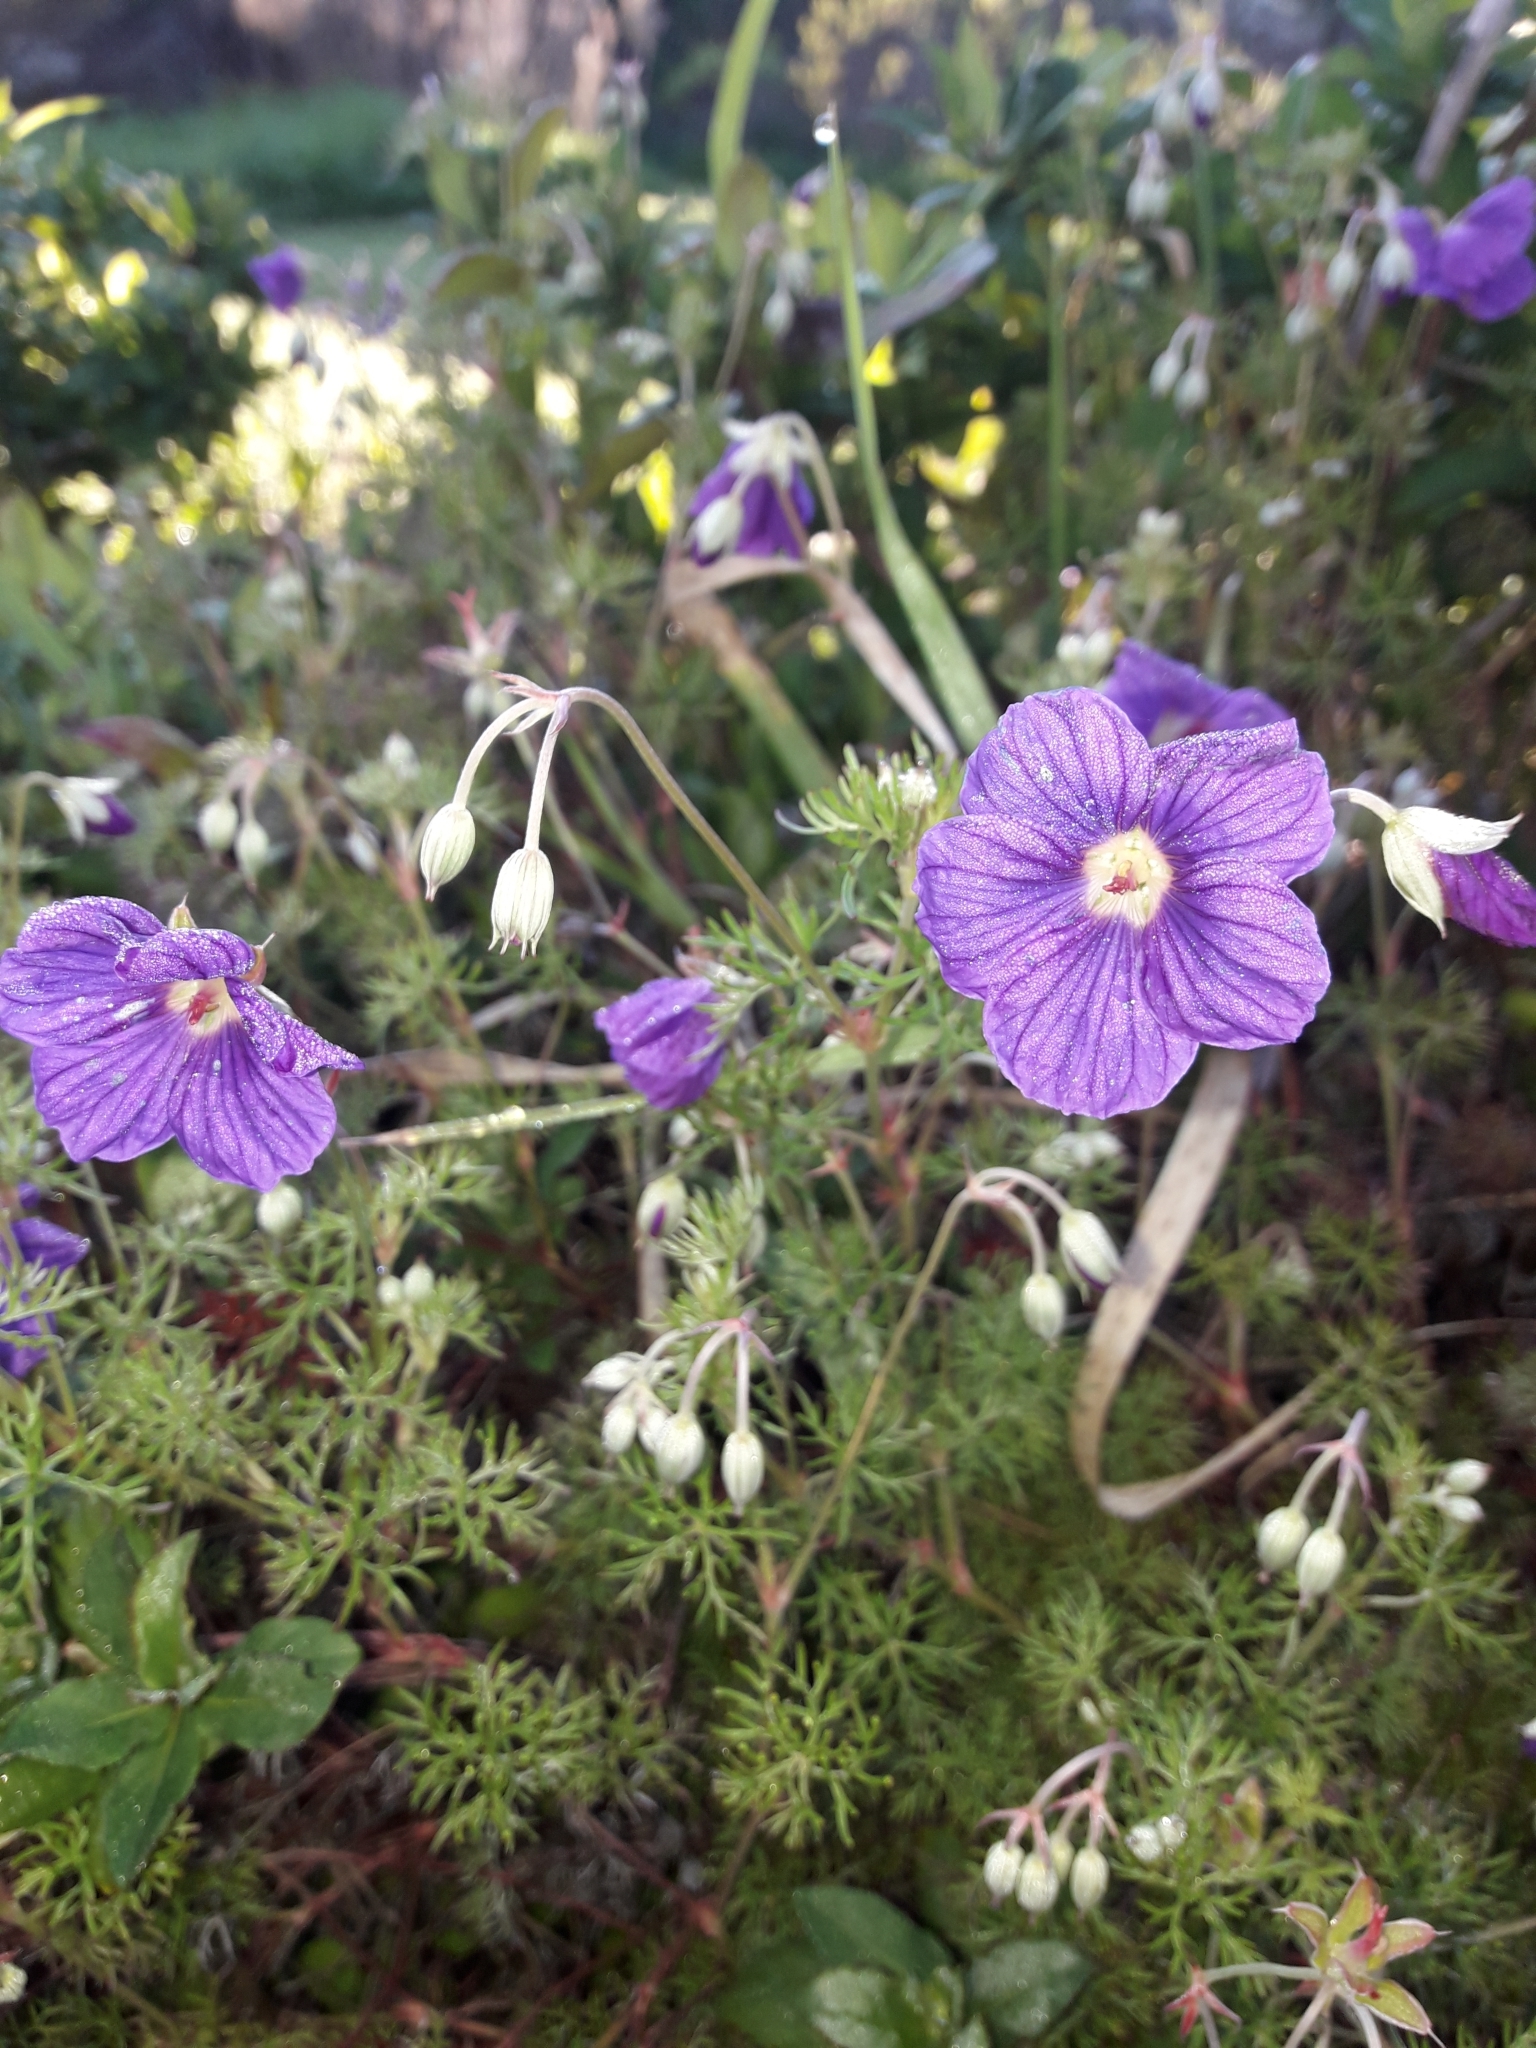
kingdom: Plantae
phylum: Tracheophyta
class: Magnoliopsida
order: Geraniales
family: Geraniaceae
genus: Geranium
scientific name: Geranium incanum
